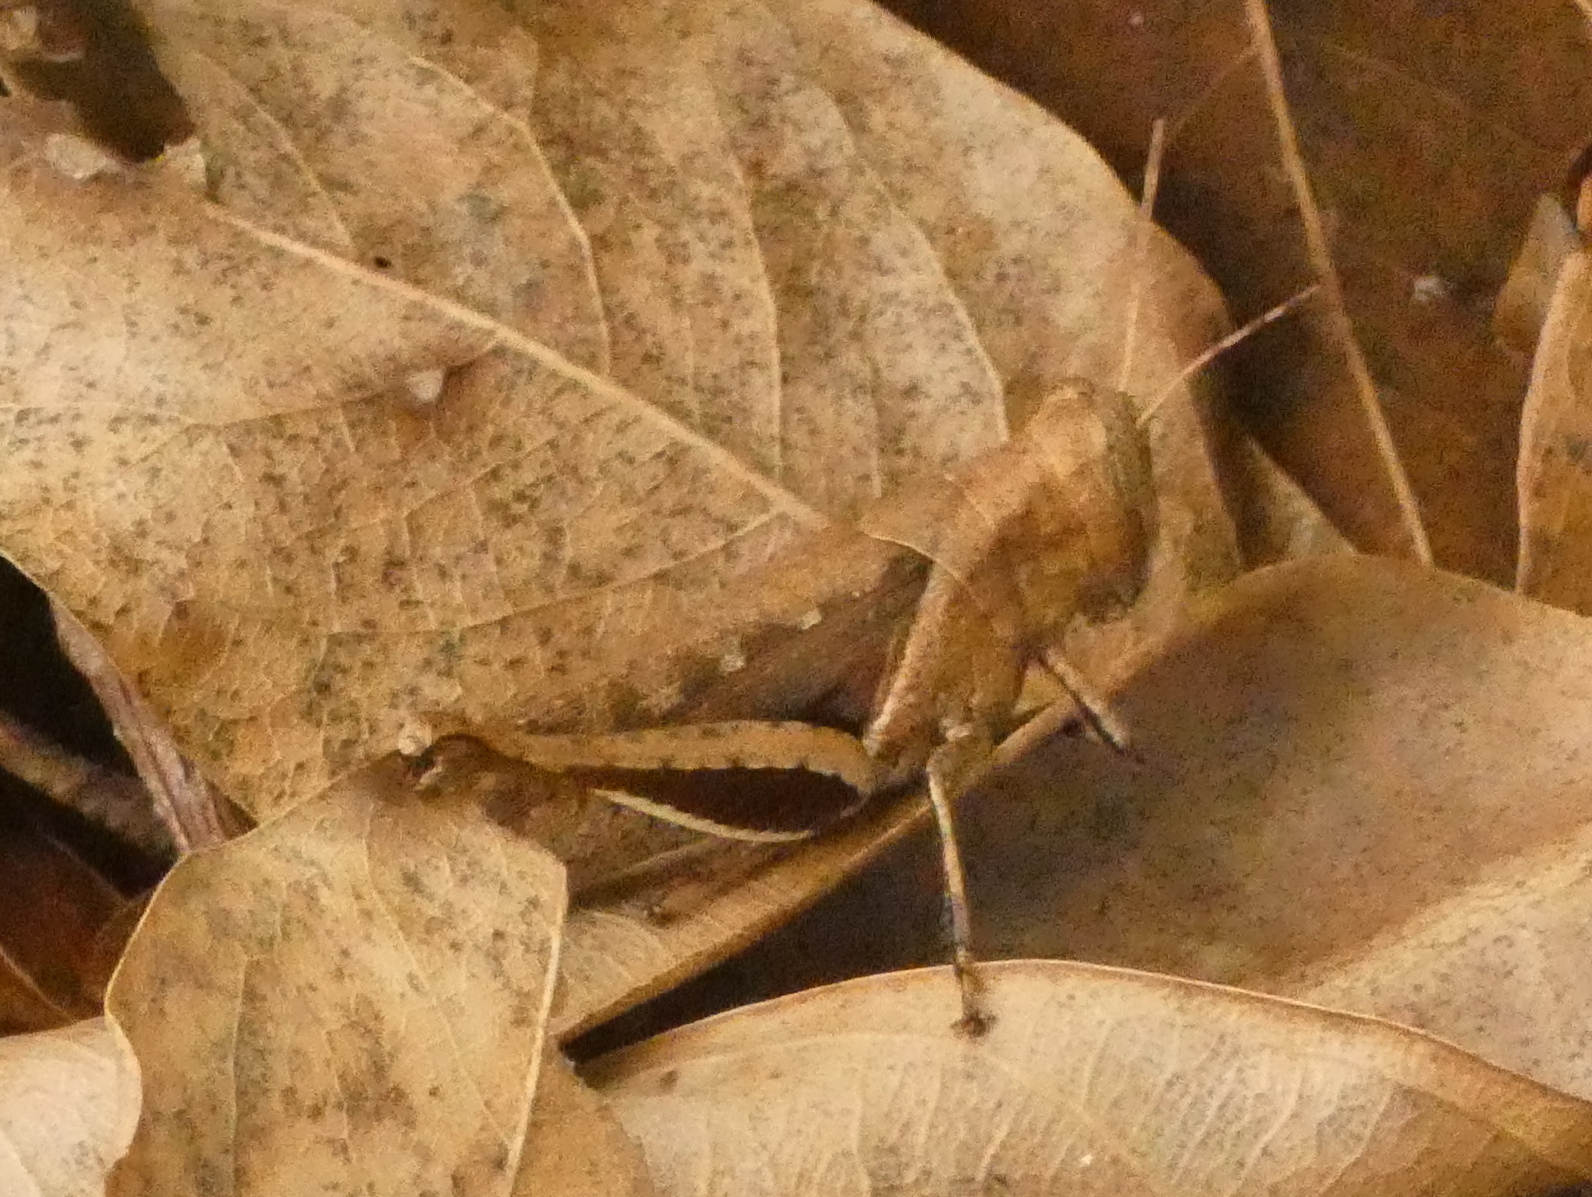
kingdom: Animalia
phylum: Arthropoda
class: Insecta
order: Orthoptera
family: Acrididae
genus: Abracris
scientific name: Abracris flavolineata
